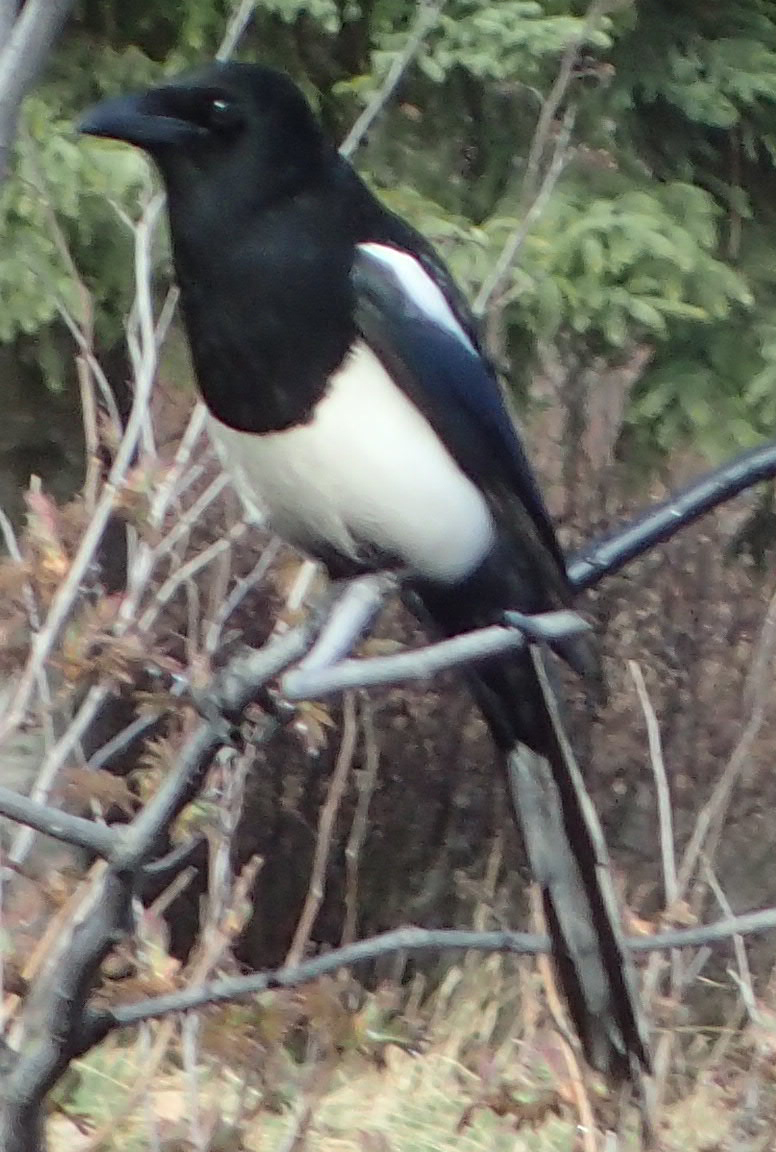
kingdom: Animalia
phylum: Chordata
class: Aves
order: Passeriformes
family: Corvidae
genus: Pica
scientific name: Pica hudsonia
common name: Black-billed magpie
